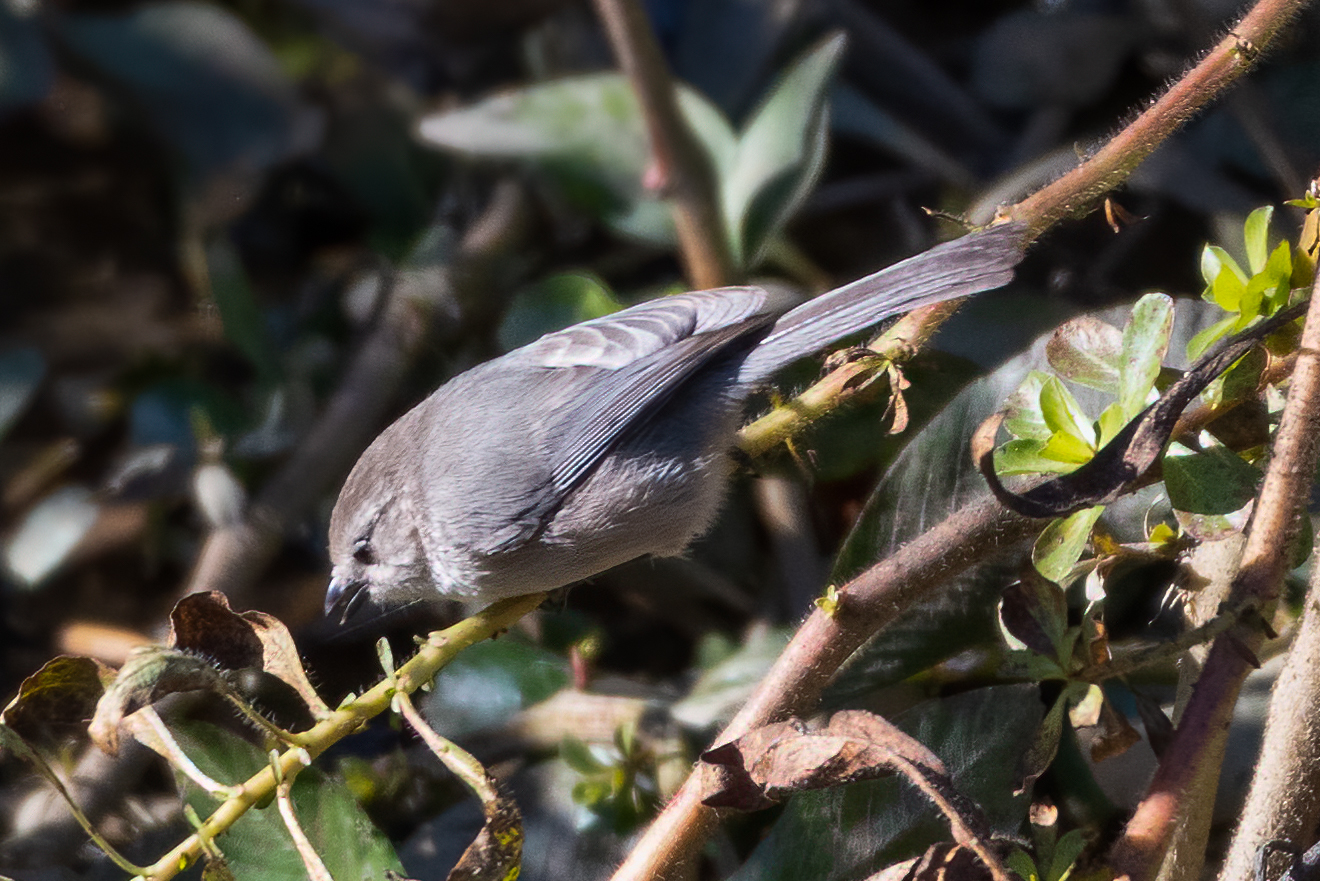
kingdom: Animalia
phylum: Chordata
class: Aves
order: Passeriformes
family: Aegithalidae
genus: Psaltriparus
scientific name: Psaltriparus minimus
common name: American bushtit
